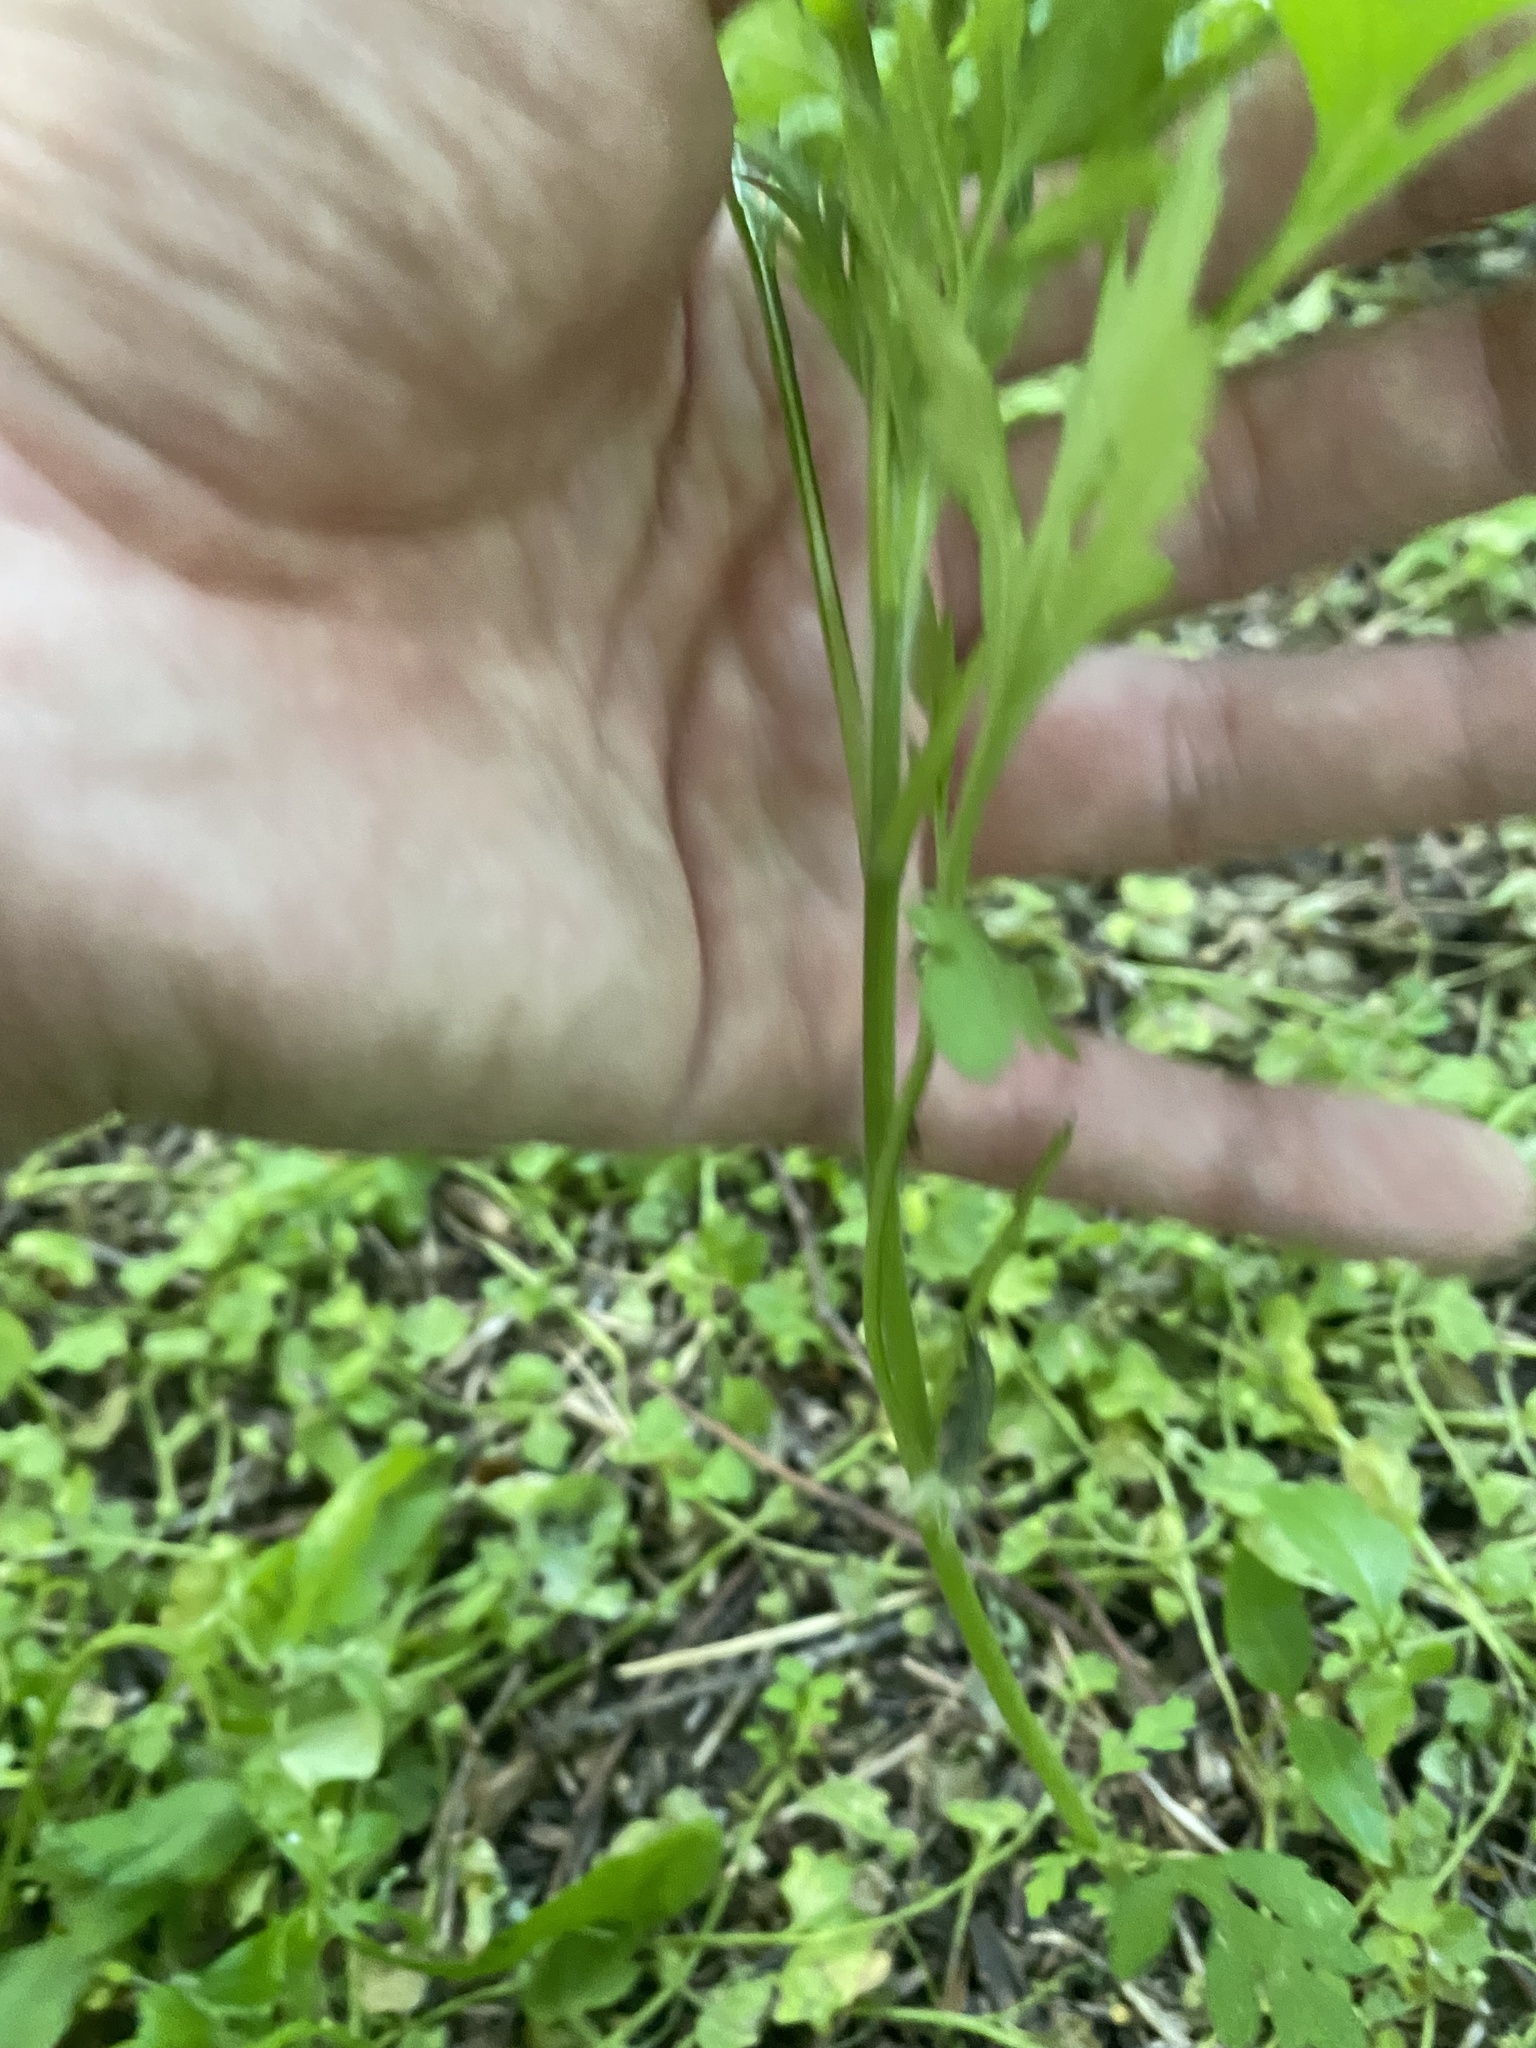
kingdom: Plantae
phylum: Tracheophyta
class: Magnoliopsida
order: Asterales
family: Asteraceae
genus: Ambrosia
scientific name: Ambrosia artemisiifolia
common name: Annual ragweed
